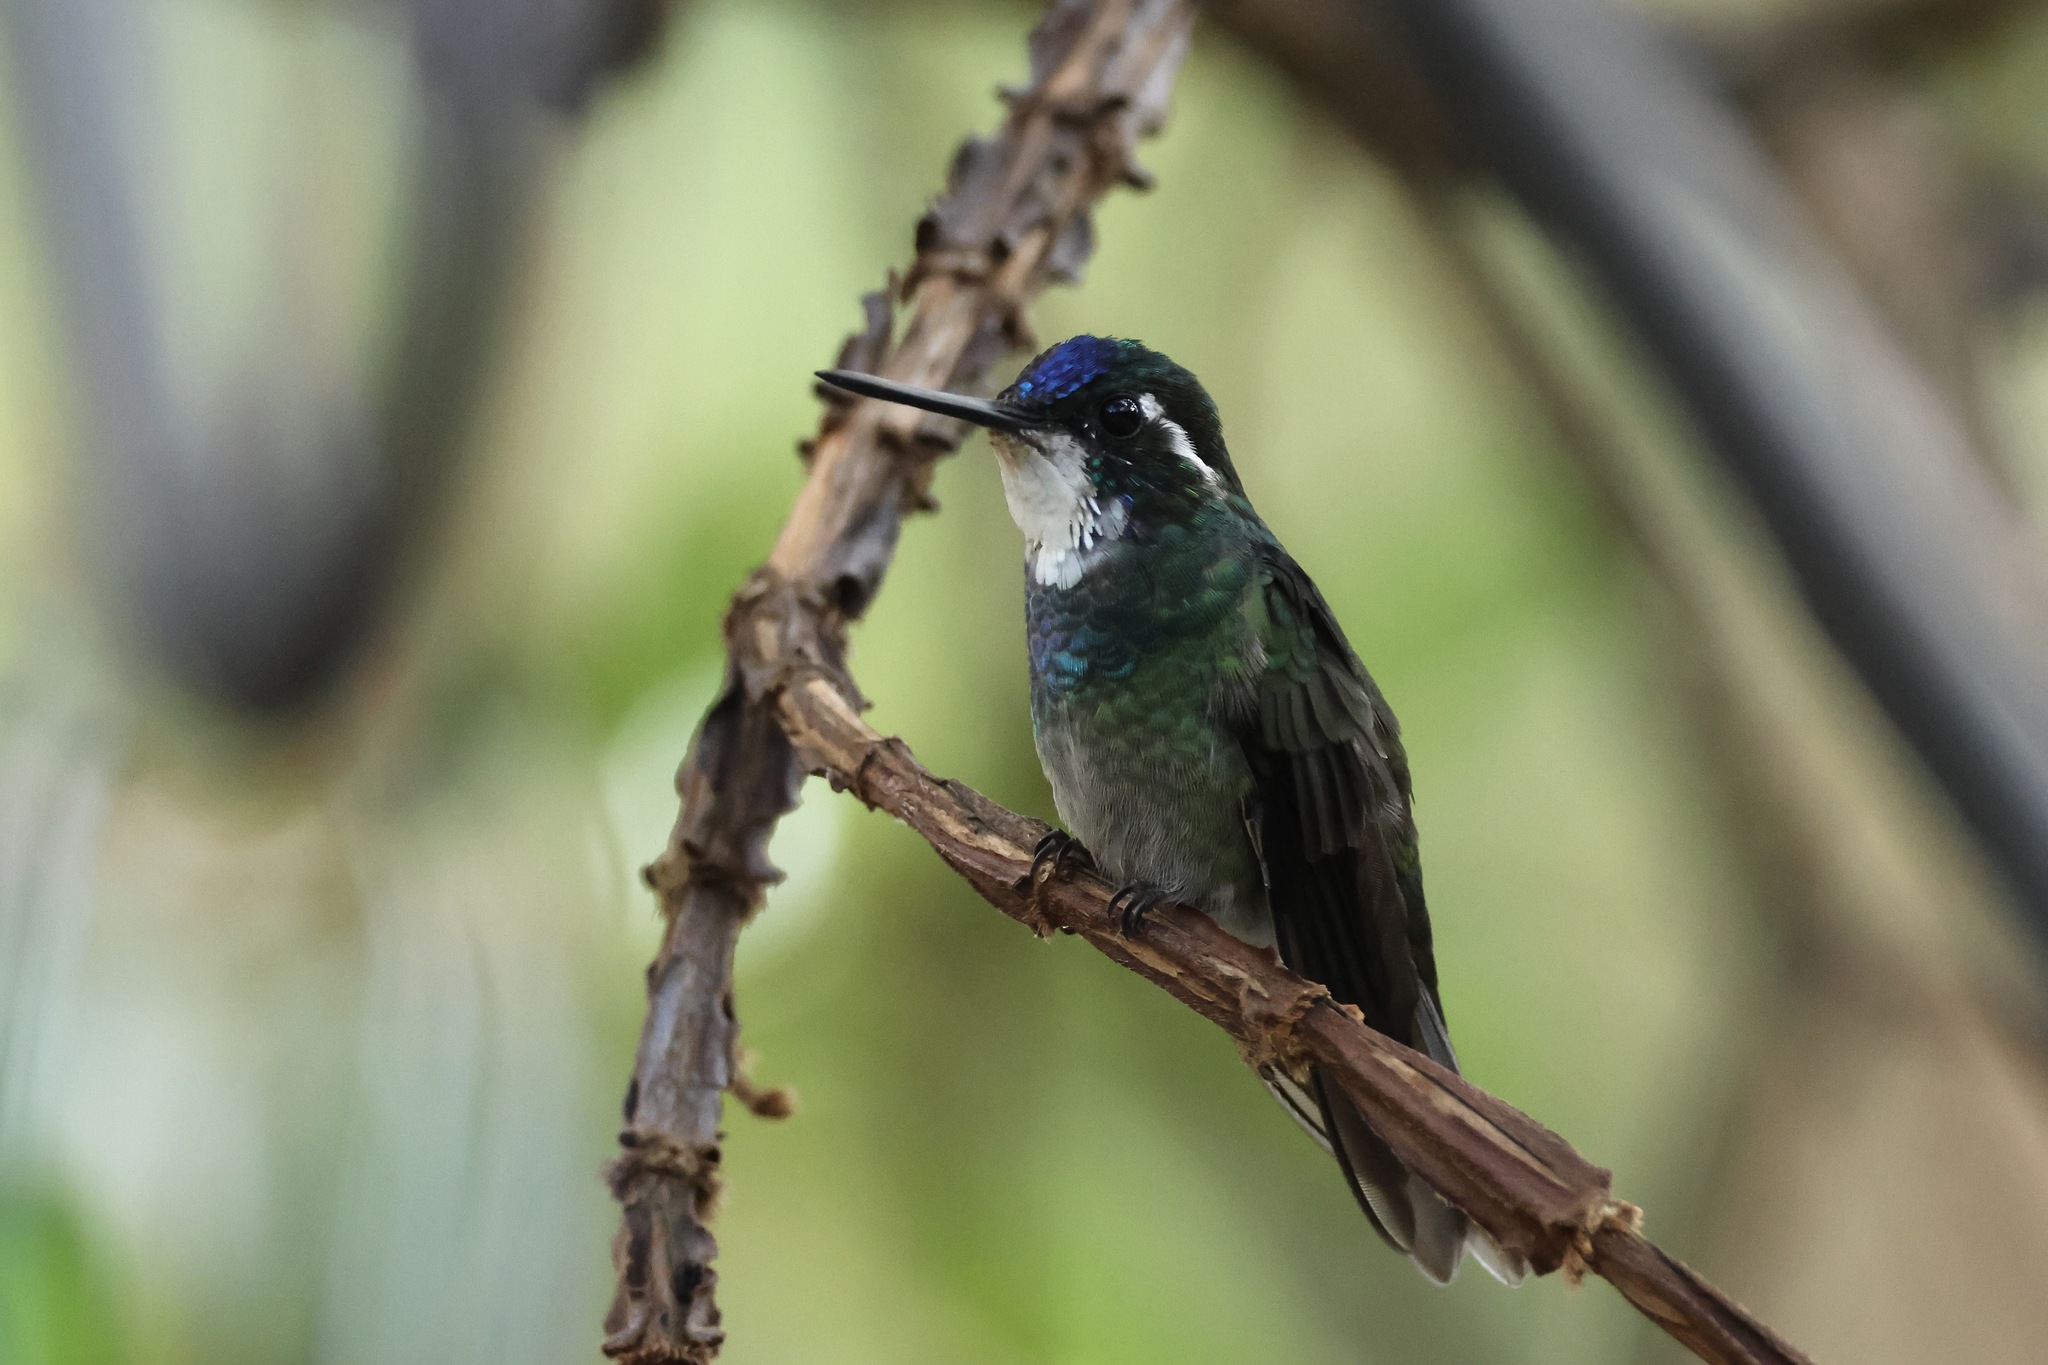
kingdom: Animalia
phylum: Chordata
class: Aves
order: Apodiformes
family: Trochilidae
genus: Lampornis
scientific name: Lampornis castaneoventris
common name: White-throated mountain-gem
